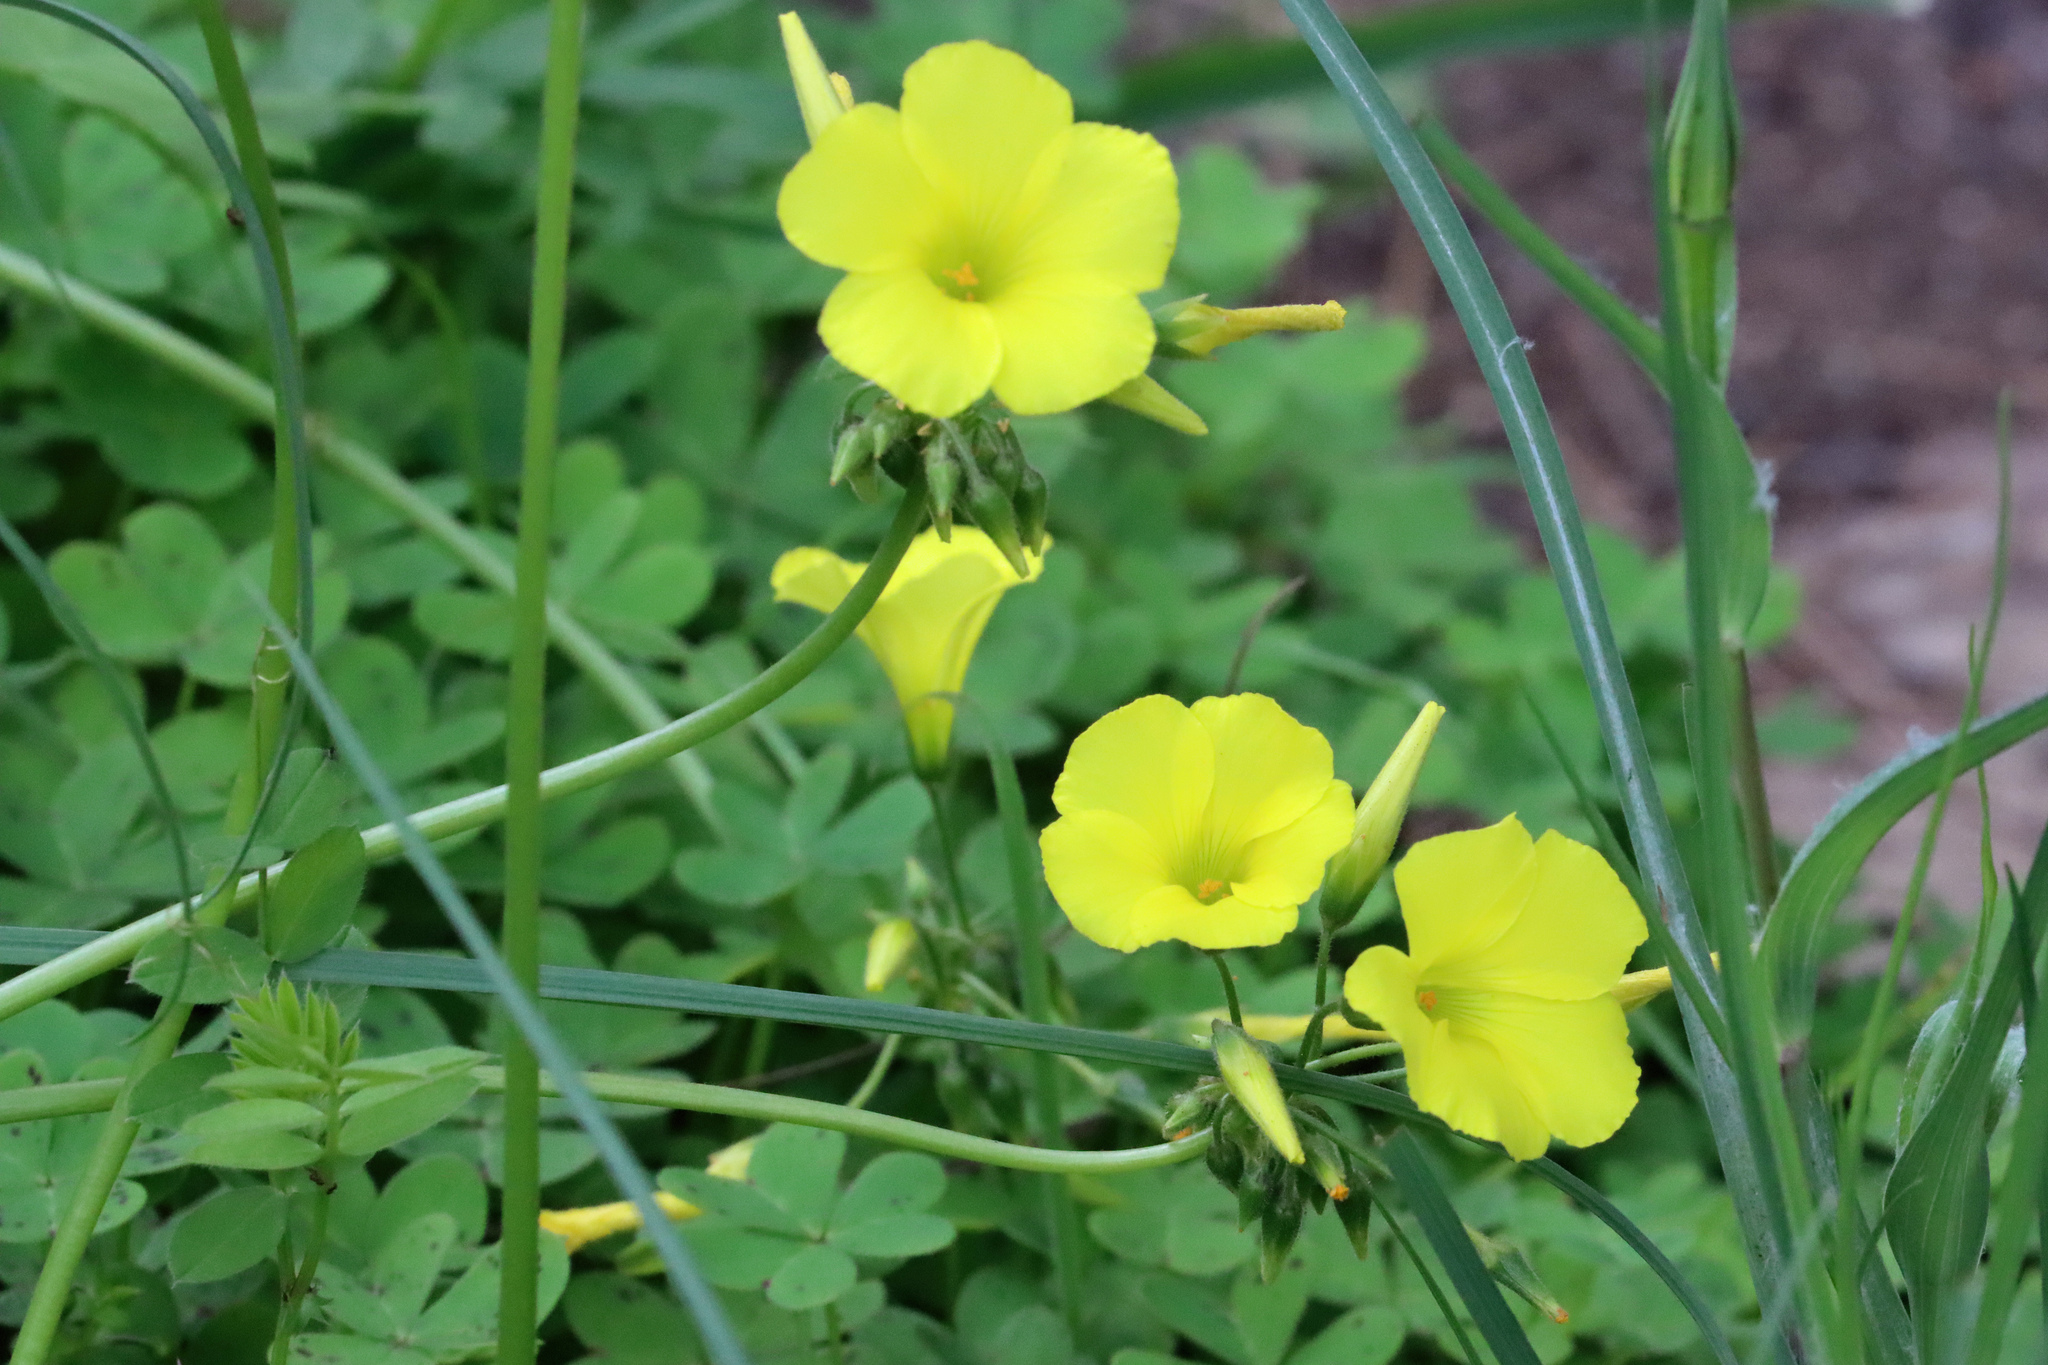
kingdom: Plantae
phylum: Tracheophyta
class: Magnoliopsida
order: Oxalidales
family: Oxalidaceae
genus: Oxalis
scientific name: Oxalis pes-caprae
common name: Bermuda-buttercup
